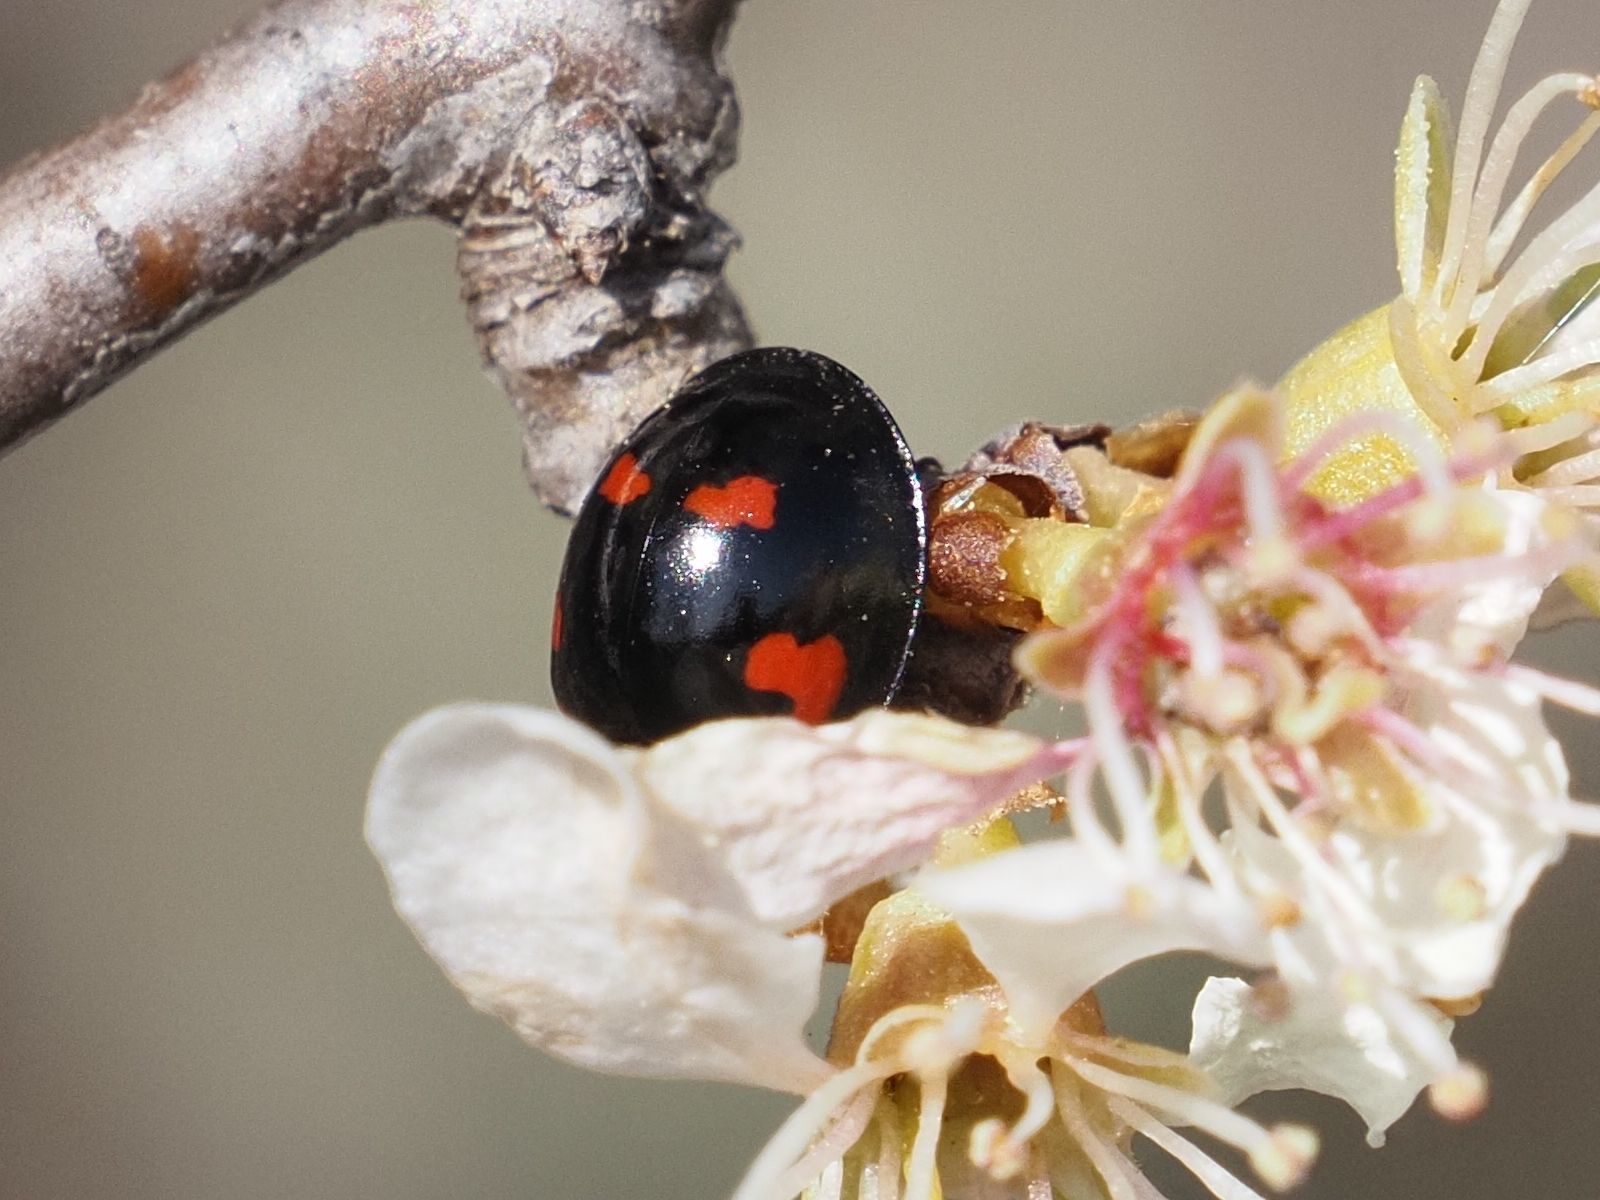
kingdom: Animalia
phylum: Arthropoda
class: Insecta
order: Coleoptera
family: Coccinellidae
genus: Brumus
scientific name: Brumus quadripustulatus
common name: Ladybird beetle
